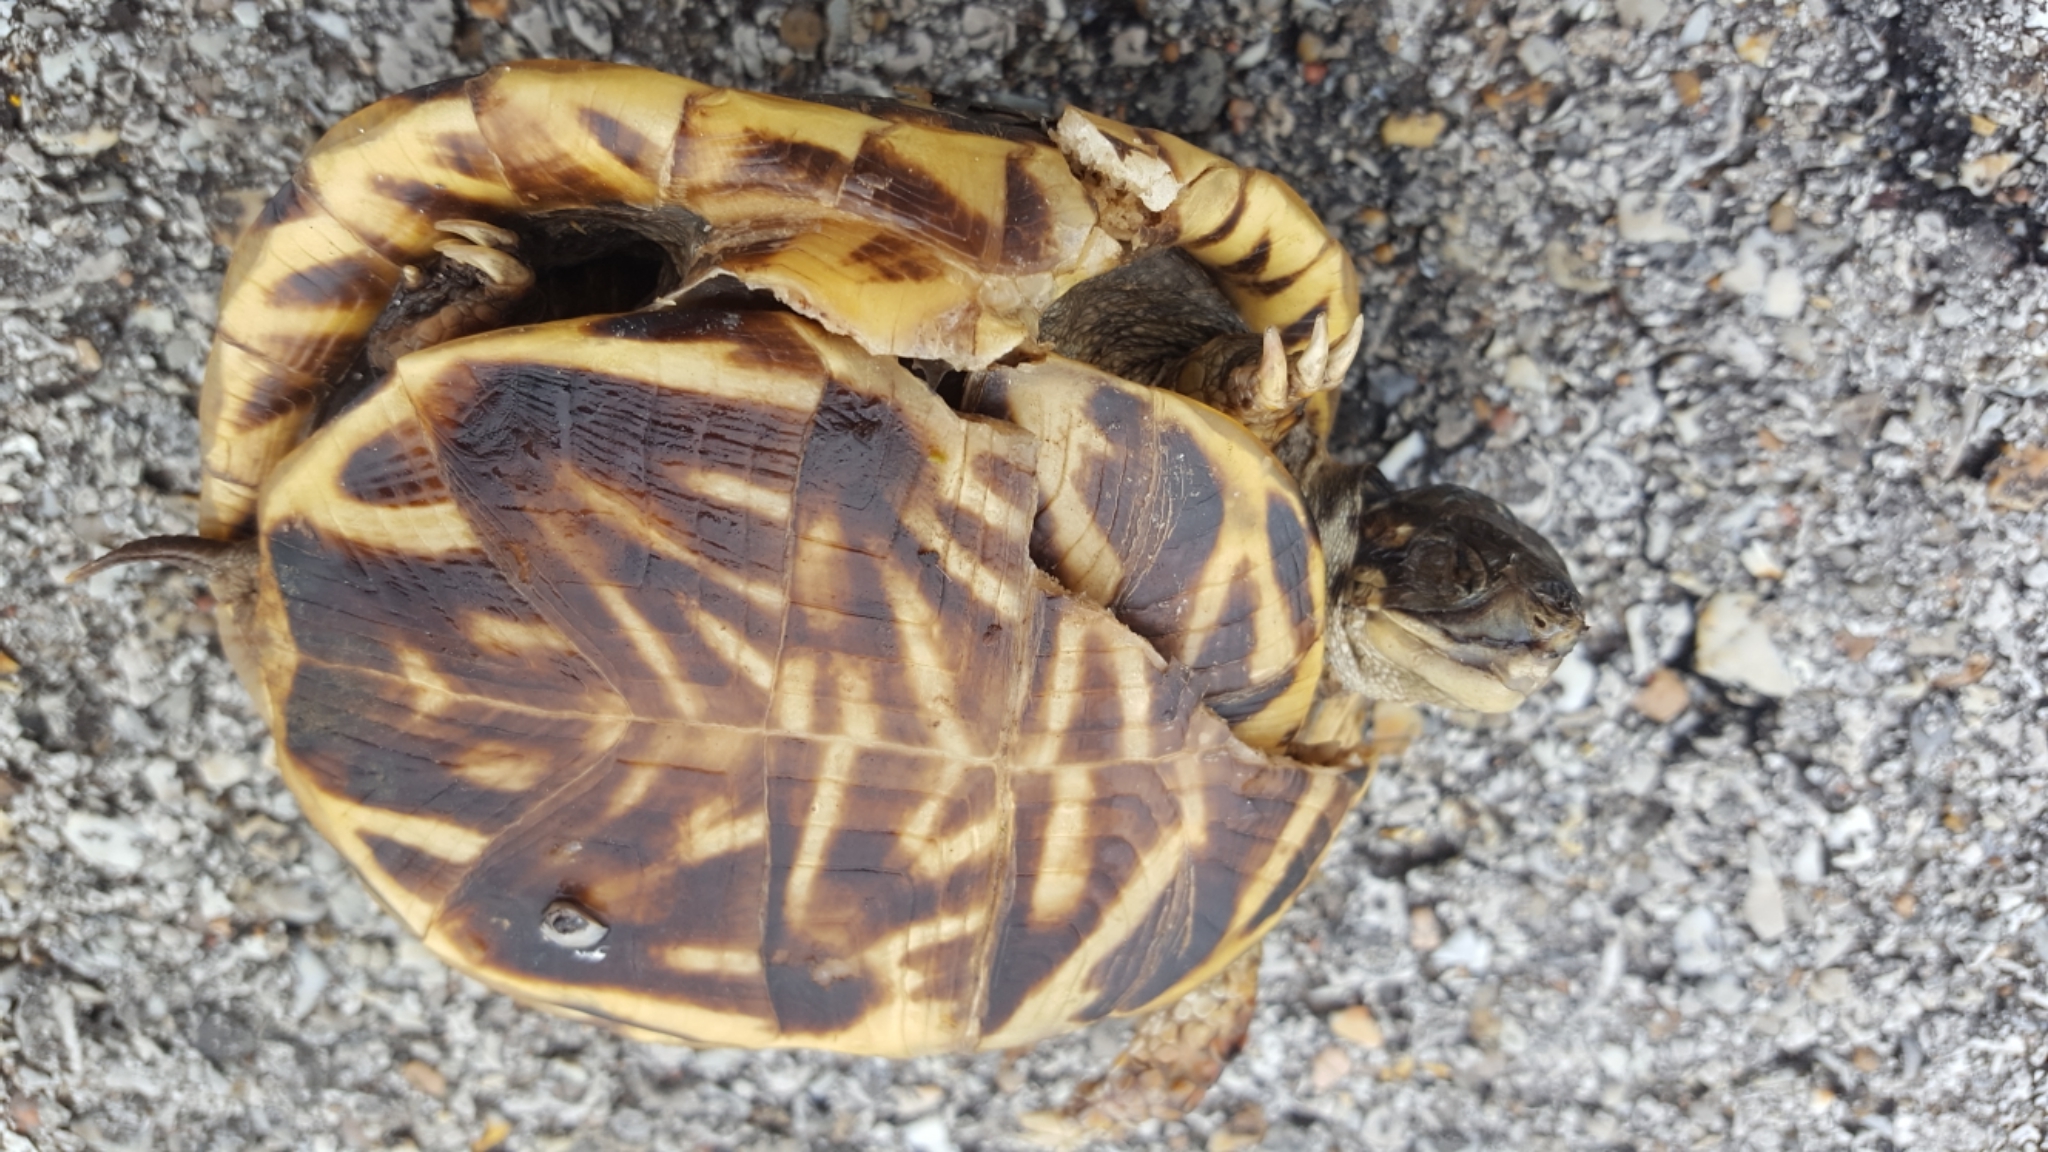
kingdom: Animalia
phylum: Chordata
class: Testudines
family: Emydidae
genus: Terrapene
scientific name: Terrapene ornata
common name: Western box turtle
